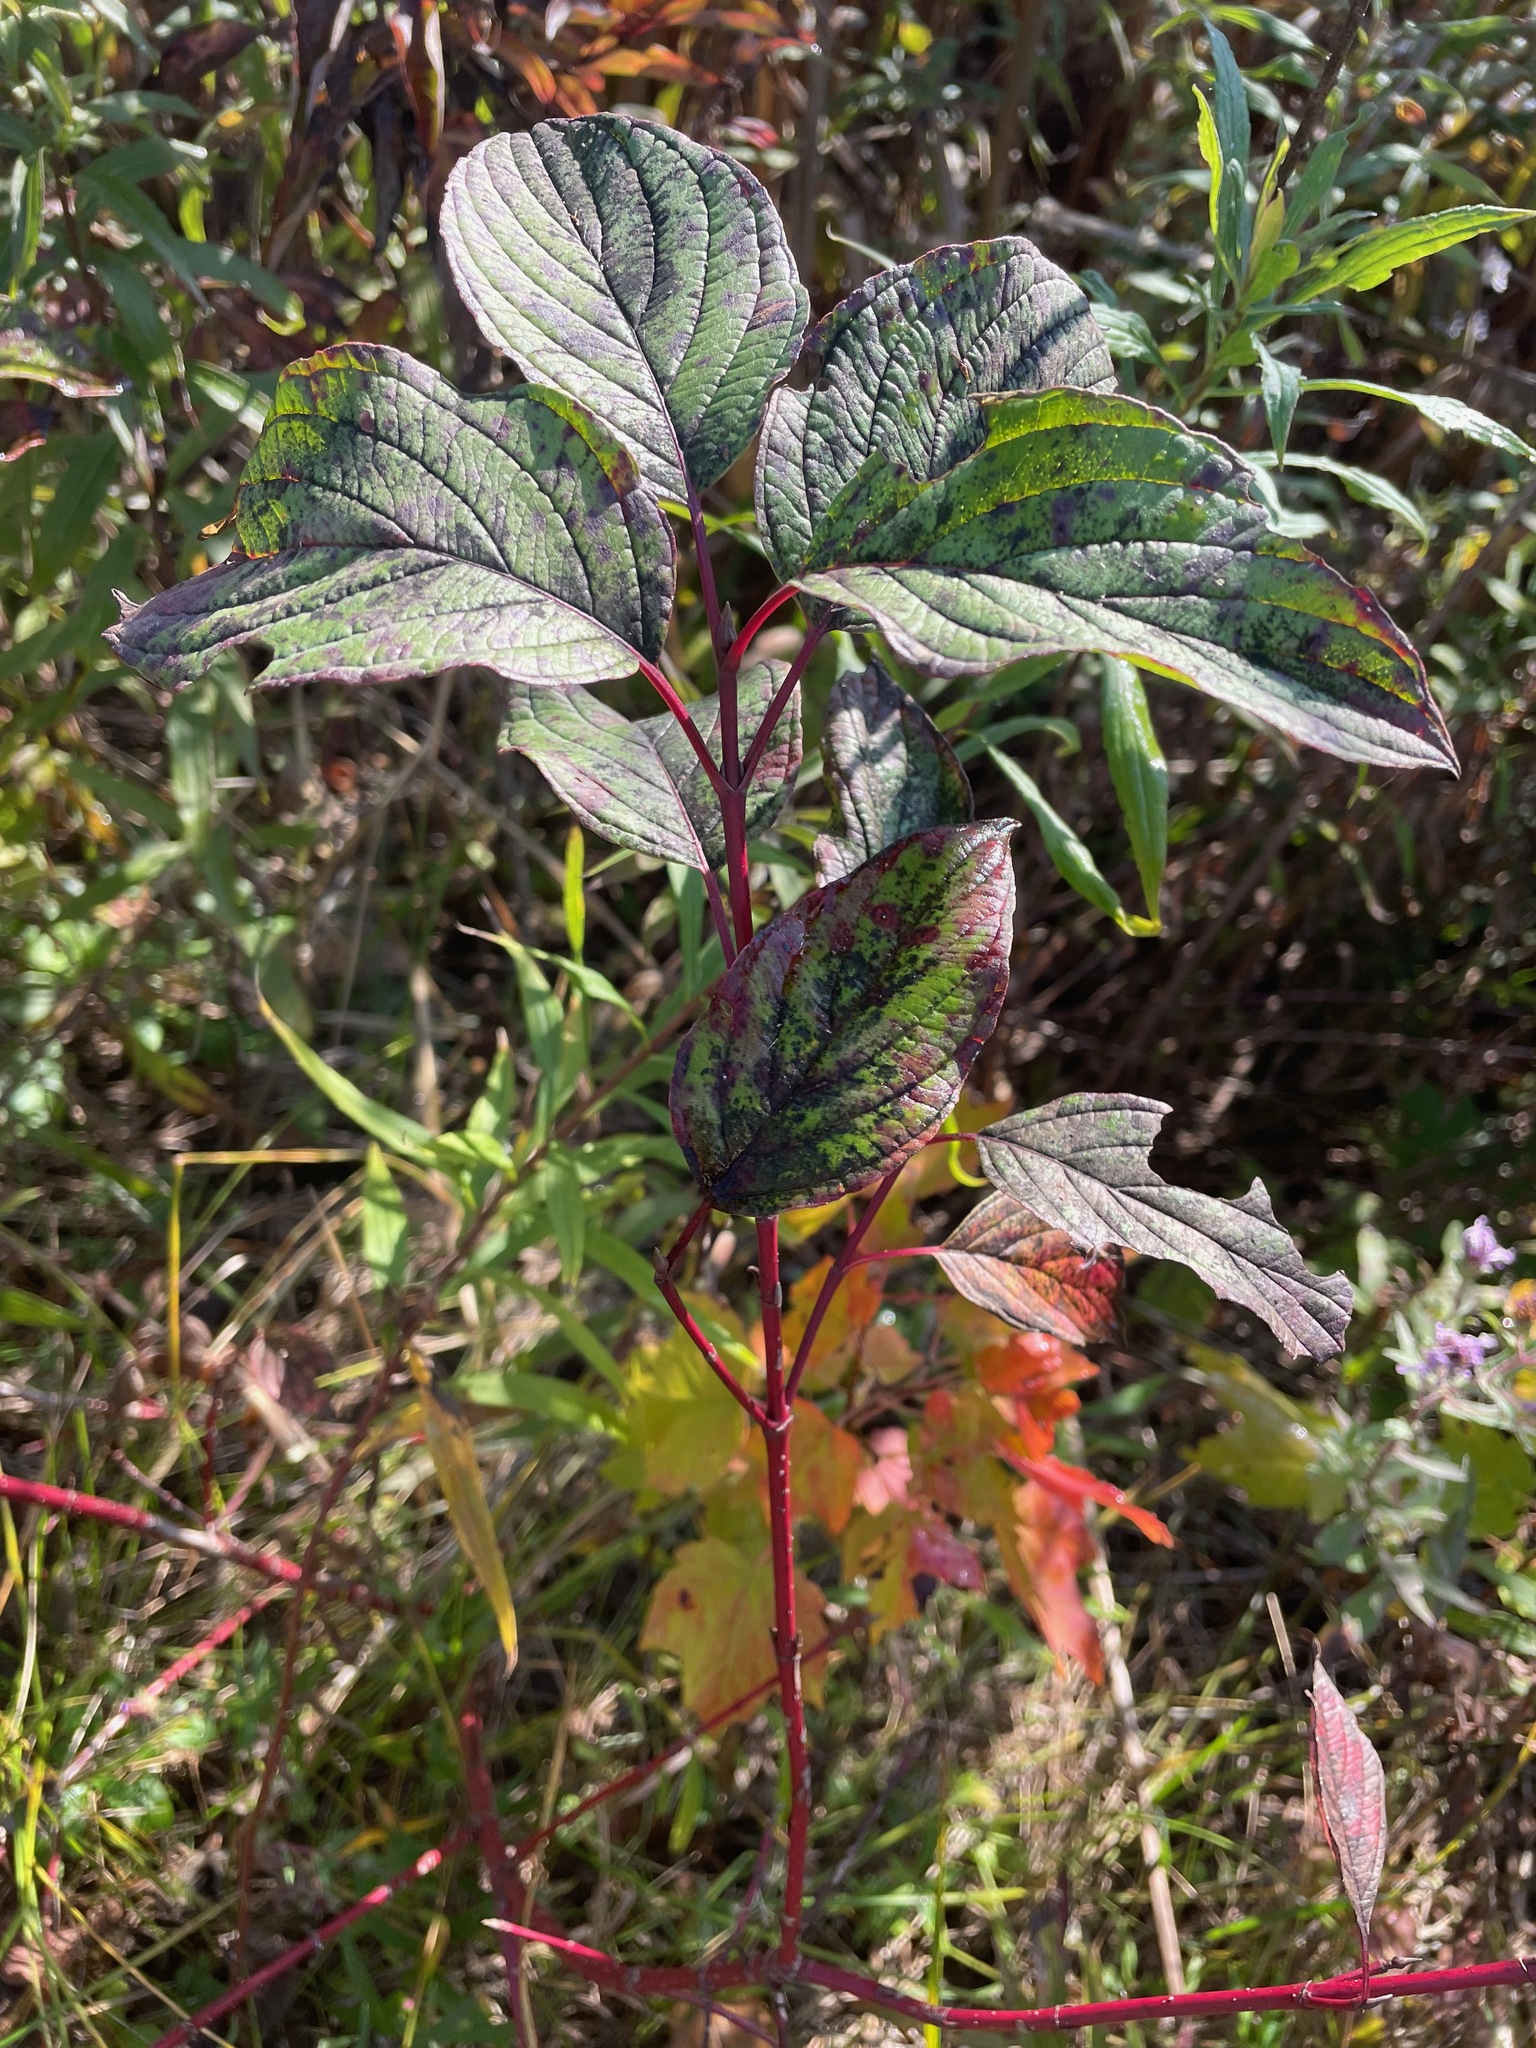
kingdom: Plantae
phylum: Tracheophyta
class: Magnoliopsida
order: Cornales
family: Cornaceae
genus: Cornus
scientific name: Cornus sericea
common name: Red-osier dogwood
